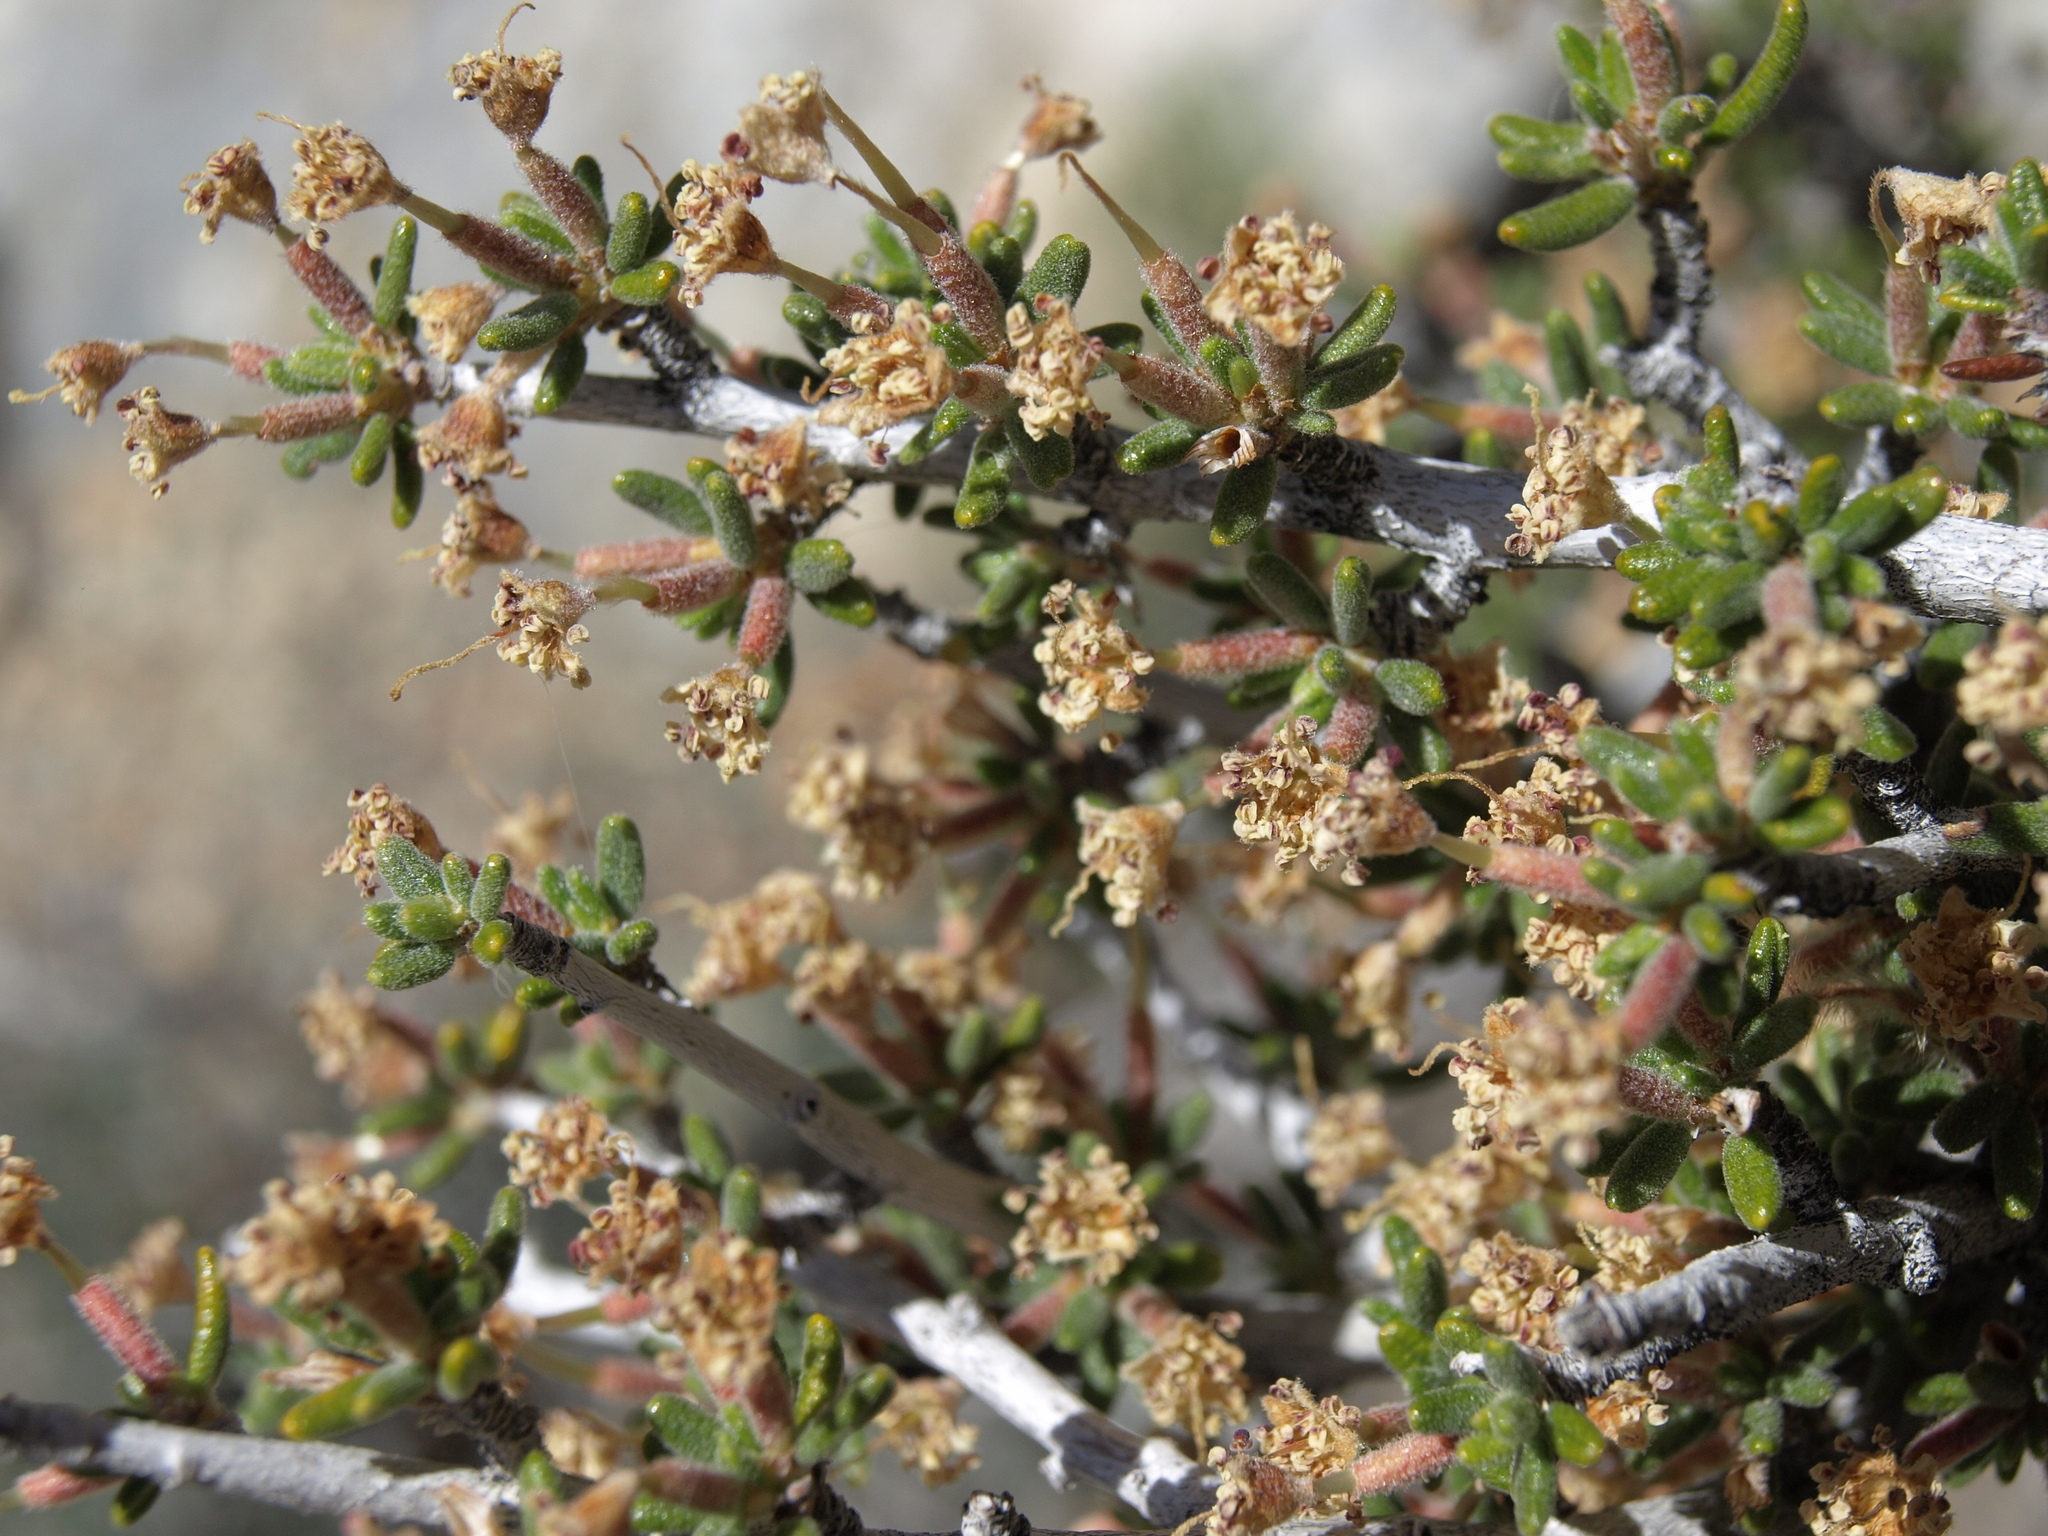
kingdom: Plantae
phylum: Tracheophyta
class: Magnoliopsida
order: Rosales
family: Rosaceae
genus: Cercocarpus
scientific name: Cercocarpus intricatus
